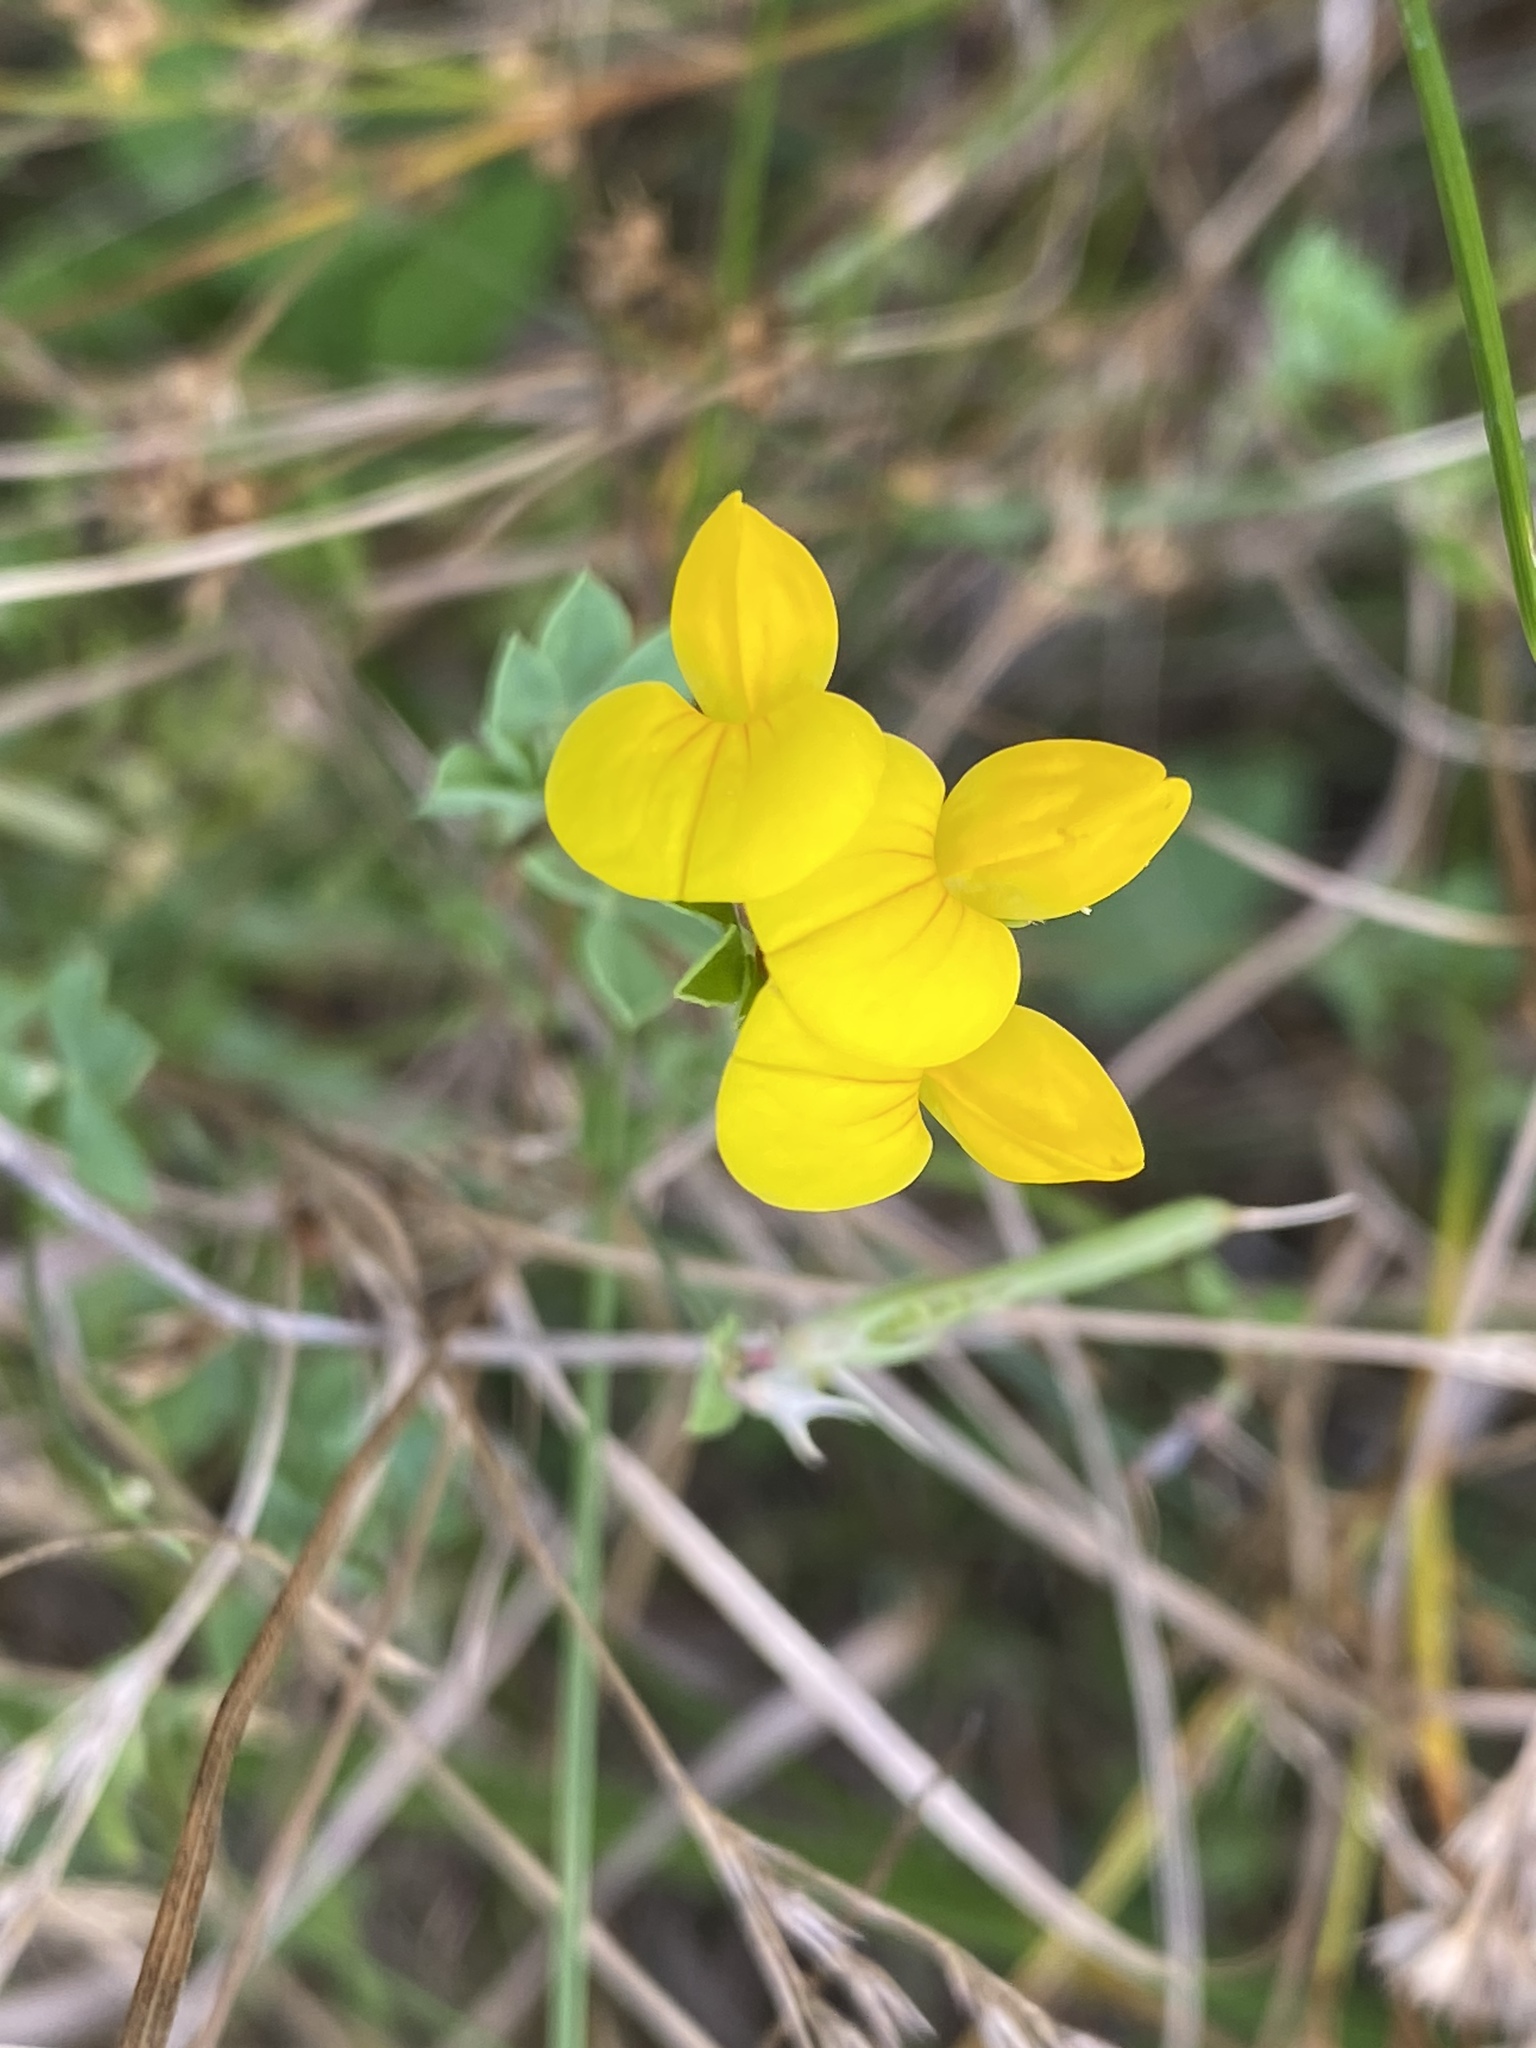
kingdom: Plantae
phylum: Tracheophyta
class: Magnoliopsida
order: Fabales
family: Fabaceae
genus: Lotus
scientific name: Lotus corniculatus
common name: Common bird's-foot-trefoil
